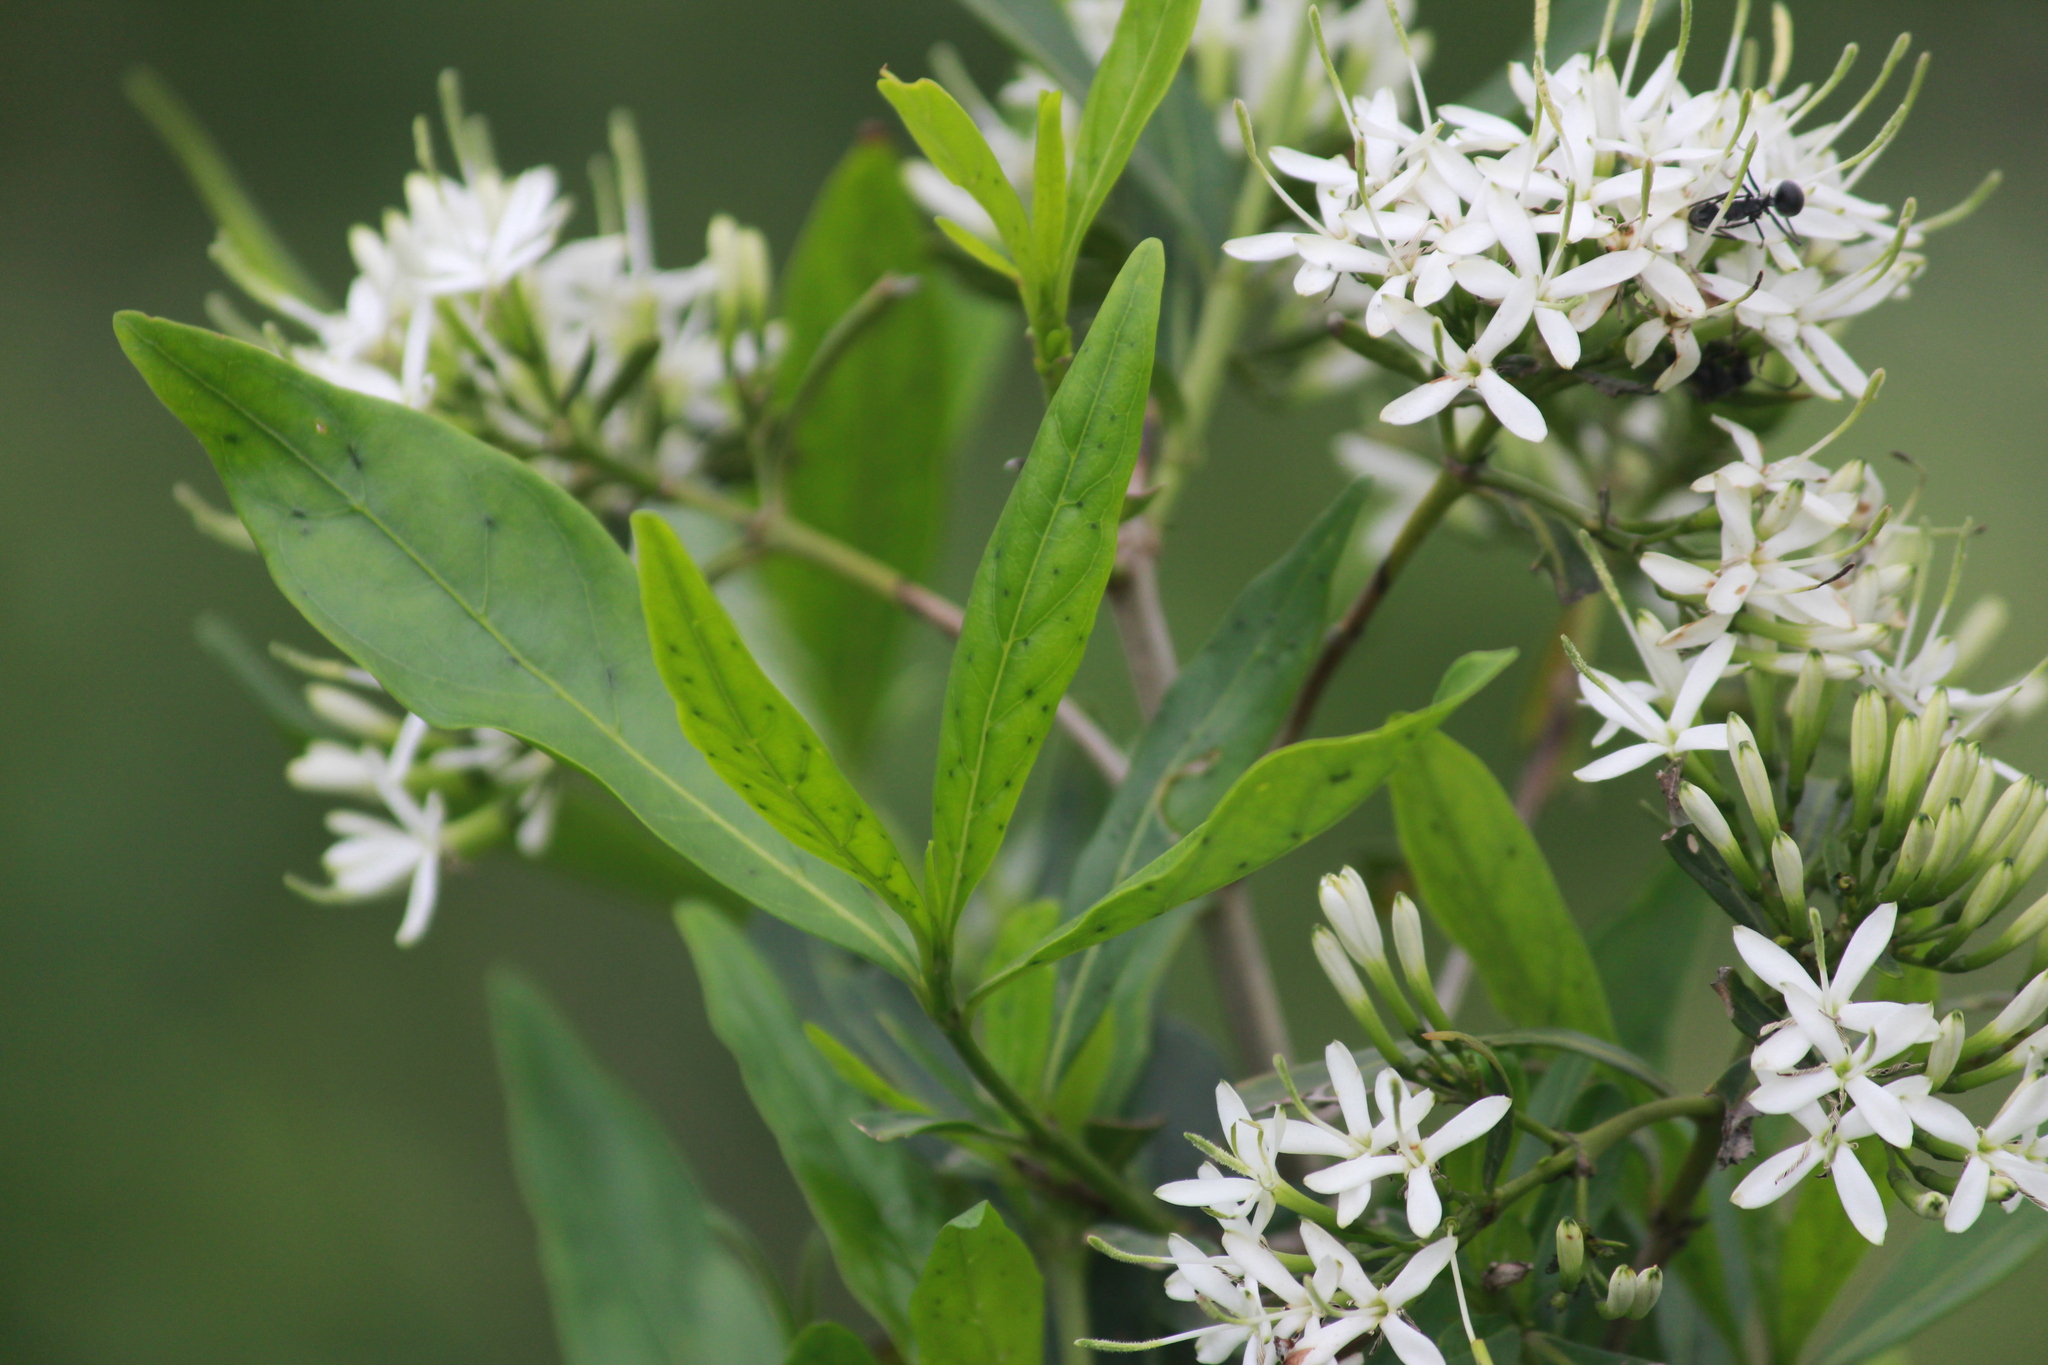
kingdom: Plantae
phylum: Tracheophyta
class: Magnoliopsida
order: Gentianales
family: Rubiaceae
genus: Pavetta
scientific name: Pavetta lanceolata
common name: Weeping brides-bush
